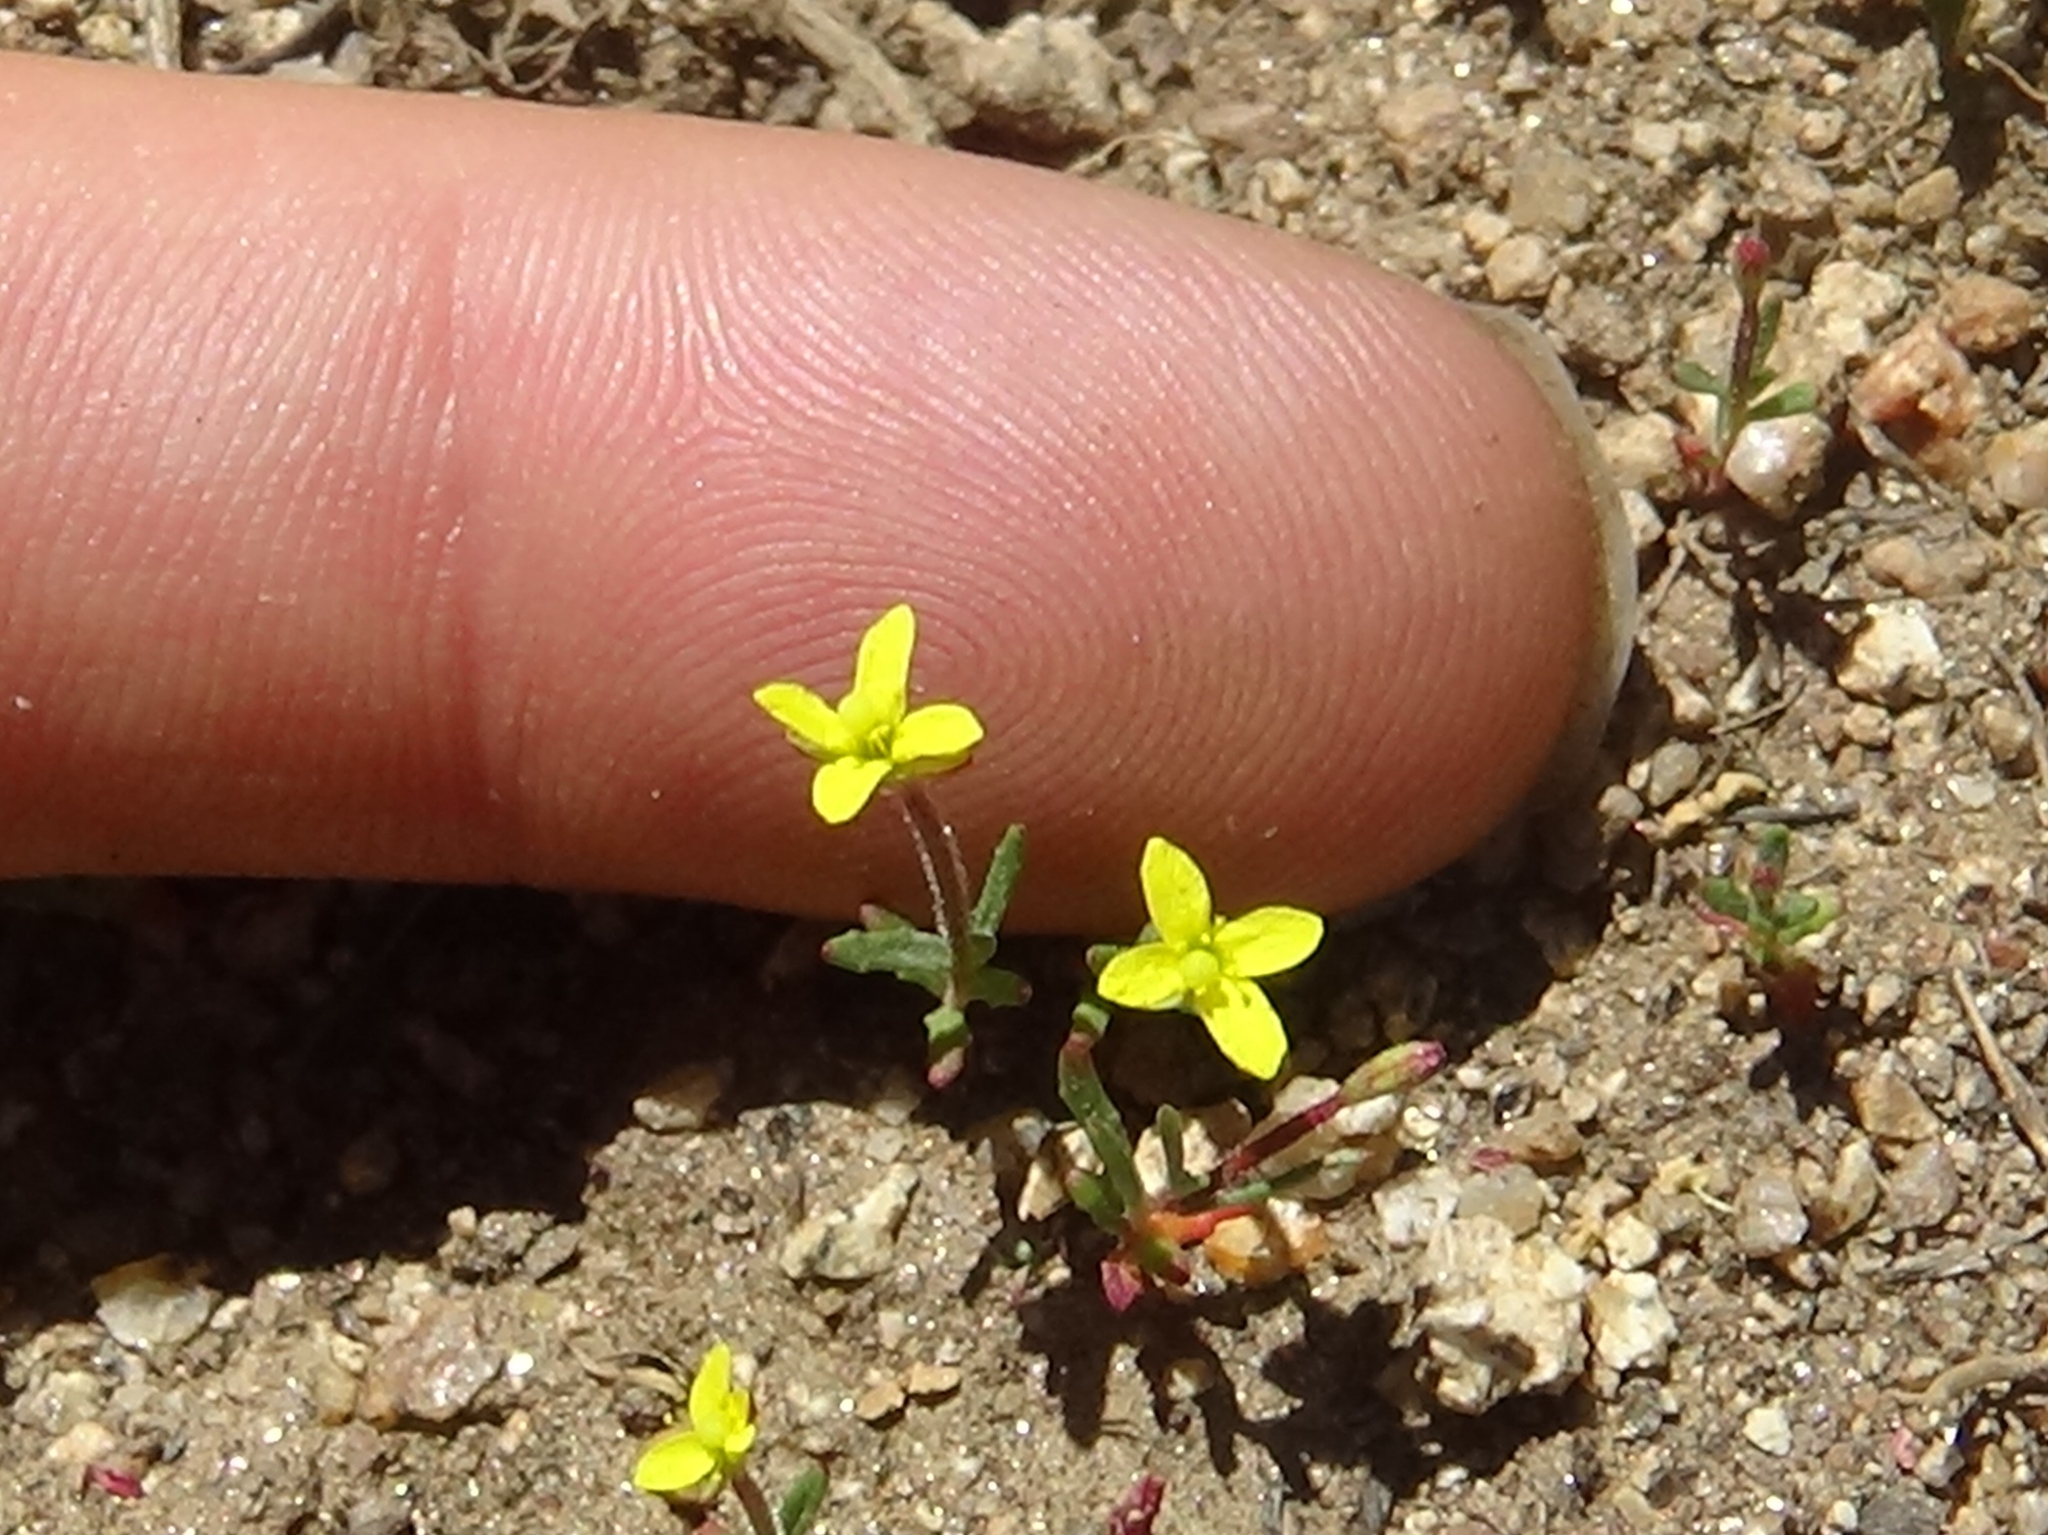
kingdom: Plantae
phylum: Tracheophyta
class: Magnoliopsida
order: Myrtales
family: Onagraceae
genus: Camissonia
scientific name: Camissonia strigulosa
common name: Contorted-primrose
